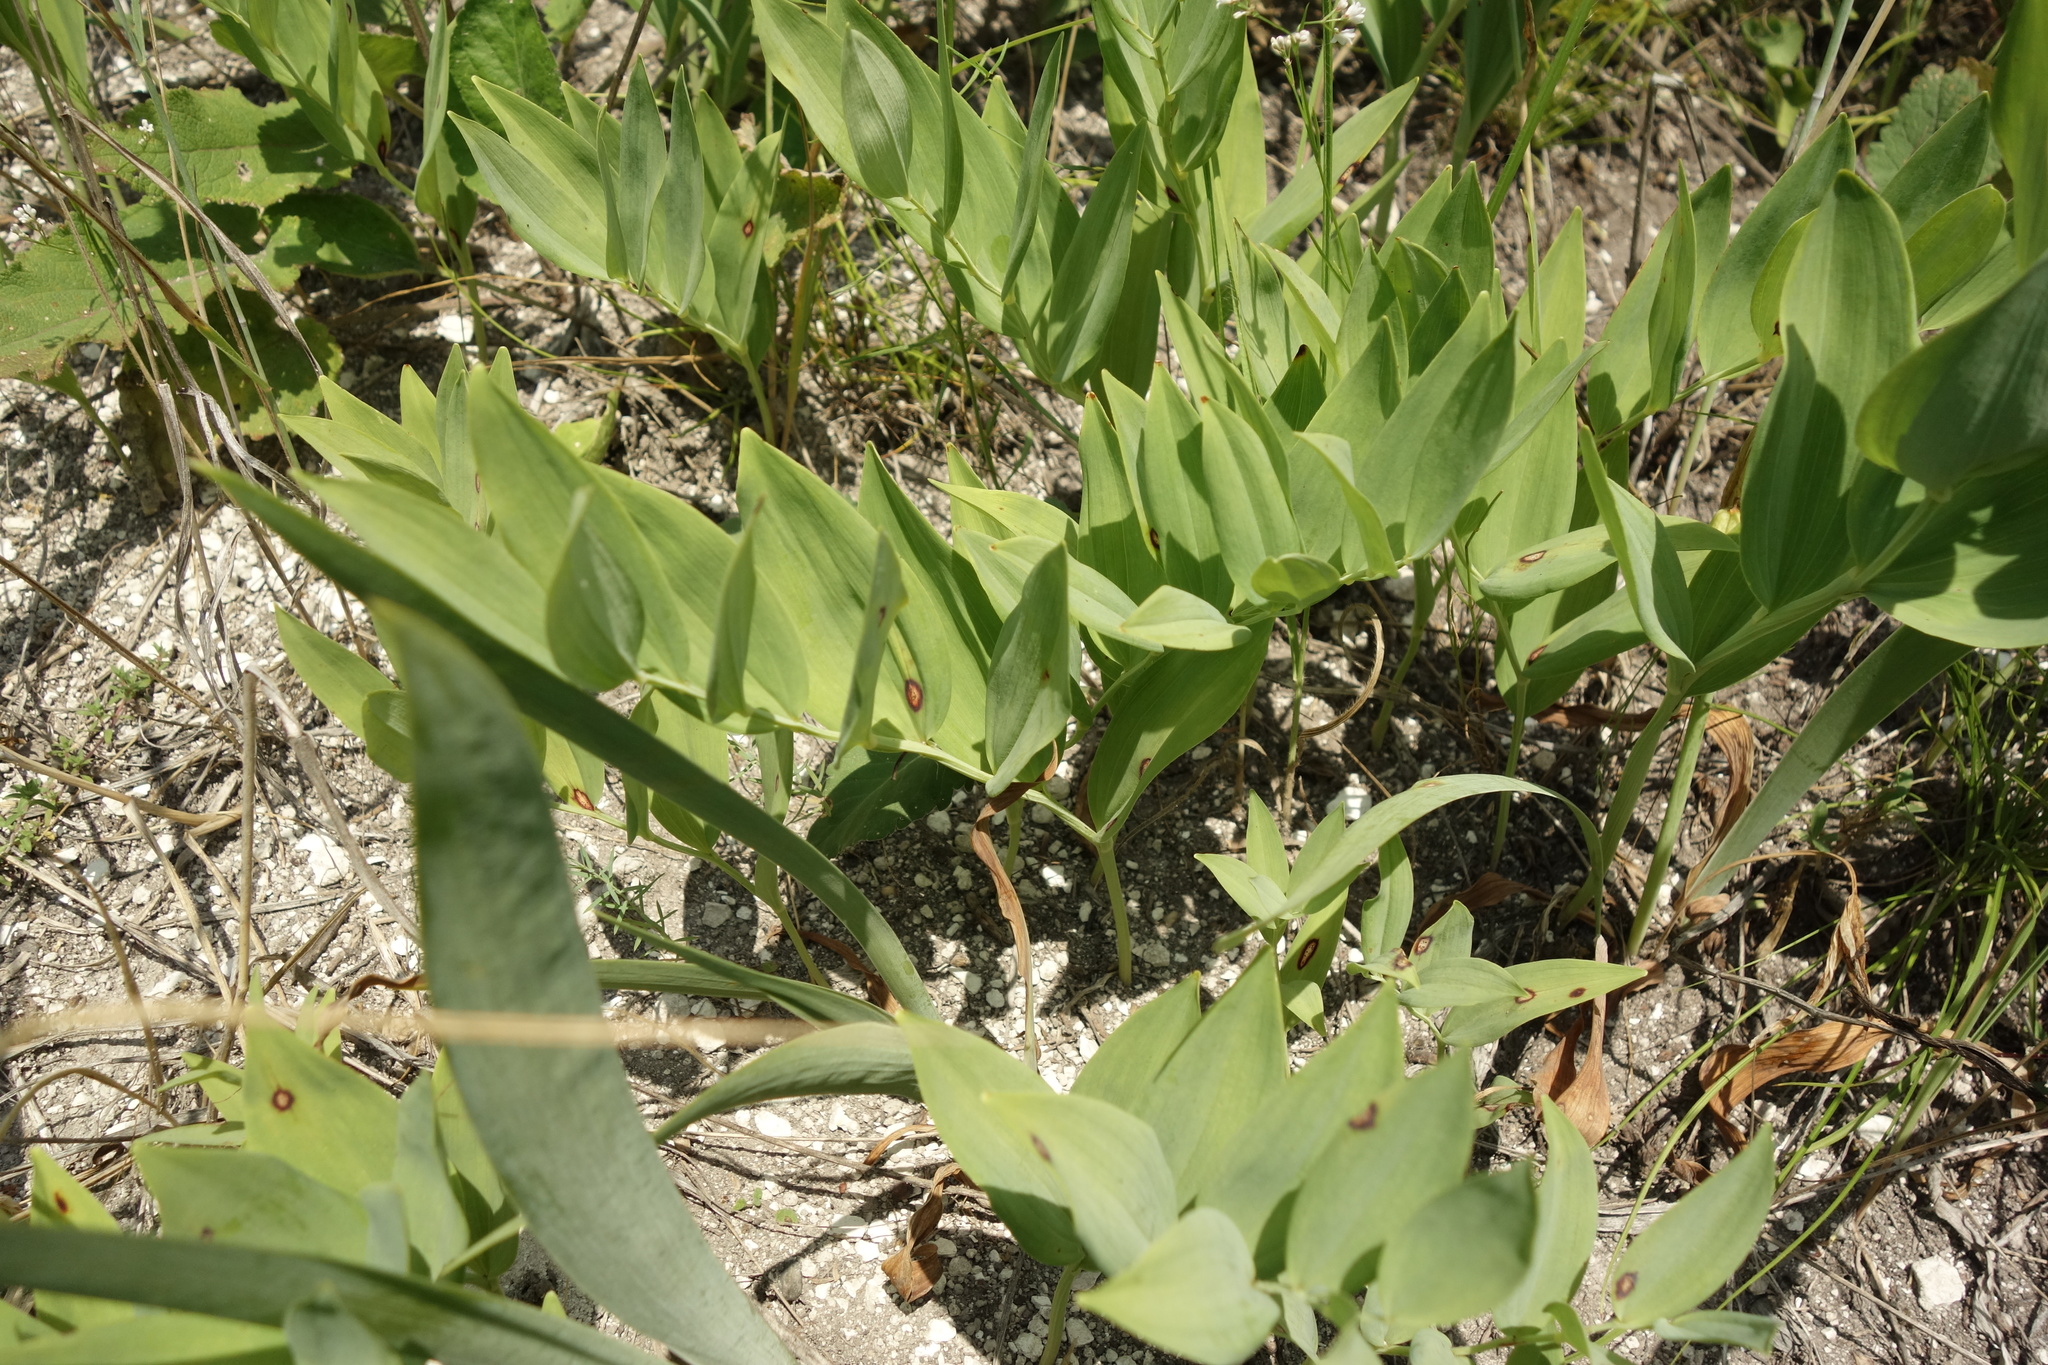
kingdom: Plantae
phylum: Tracheophyta
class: Liliopsida
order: Asparagales
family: Asparagaceae
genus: Polygonatum
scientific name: Polygonatum odoratum
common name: Angular solomon's-seal
